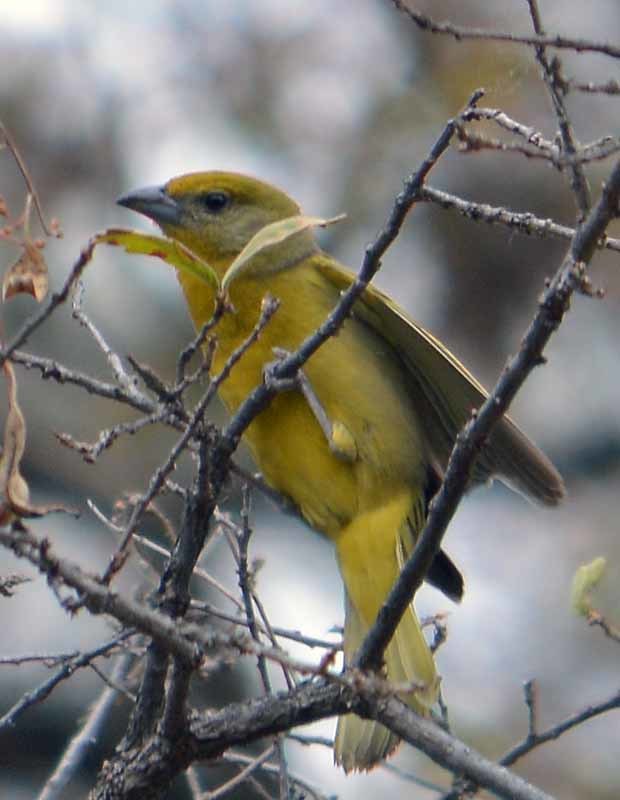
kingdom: Animalia
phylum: Chordata
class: Aves
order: Passeriformes
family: Cardinalidae
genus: Piranga
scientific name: Piranga flava
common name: Red tanager
